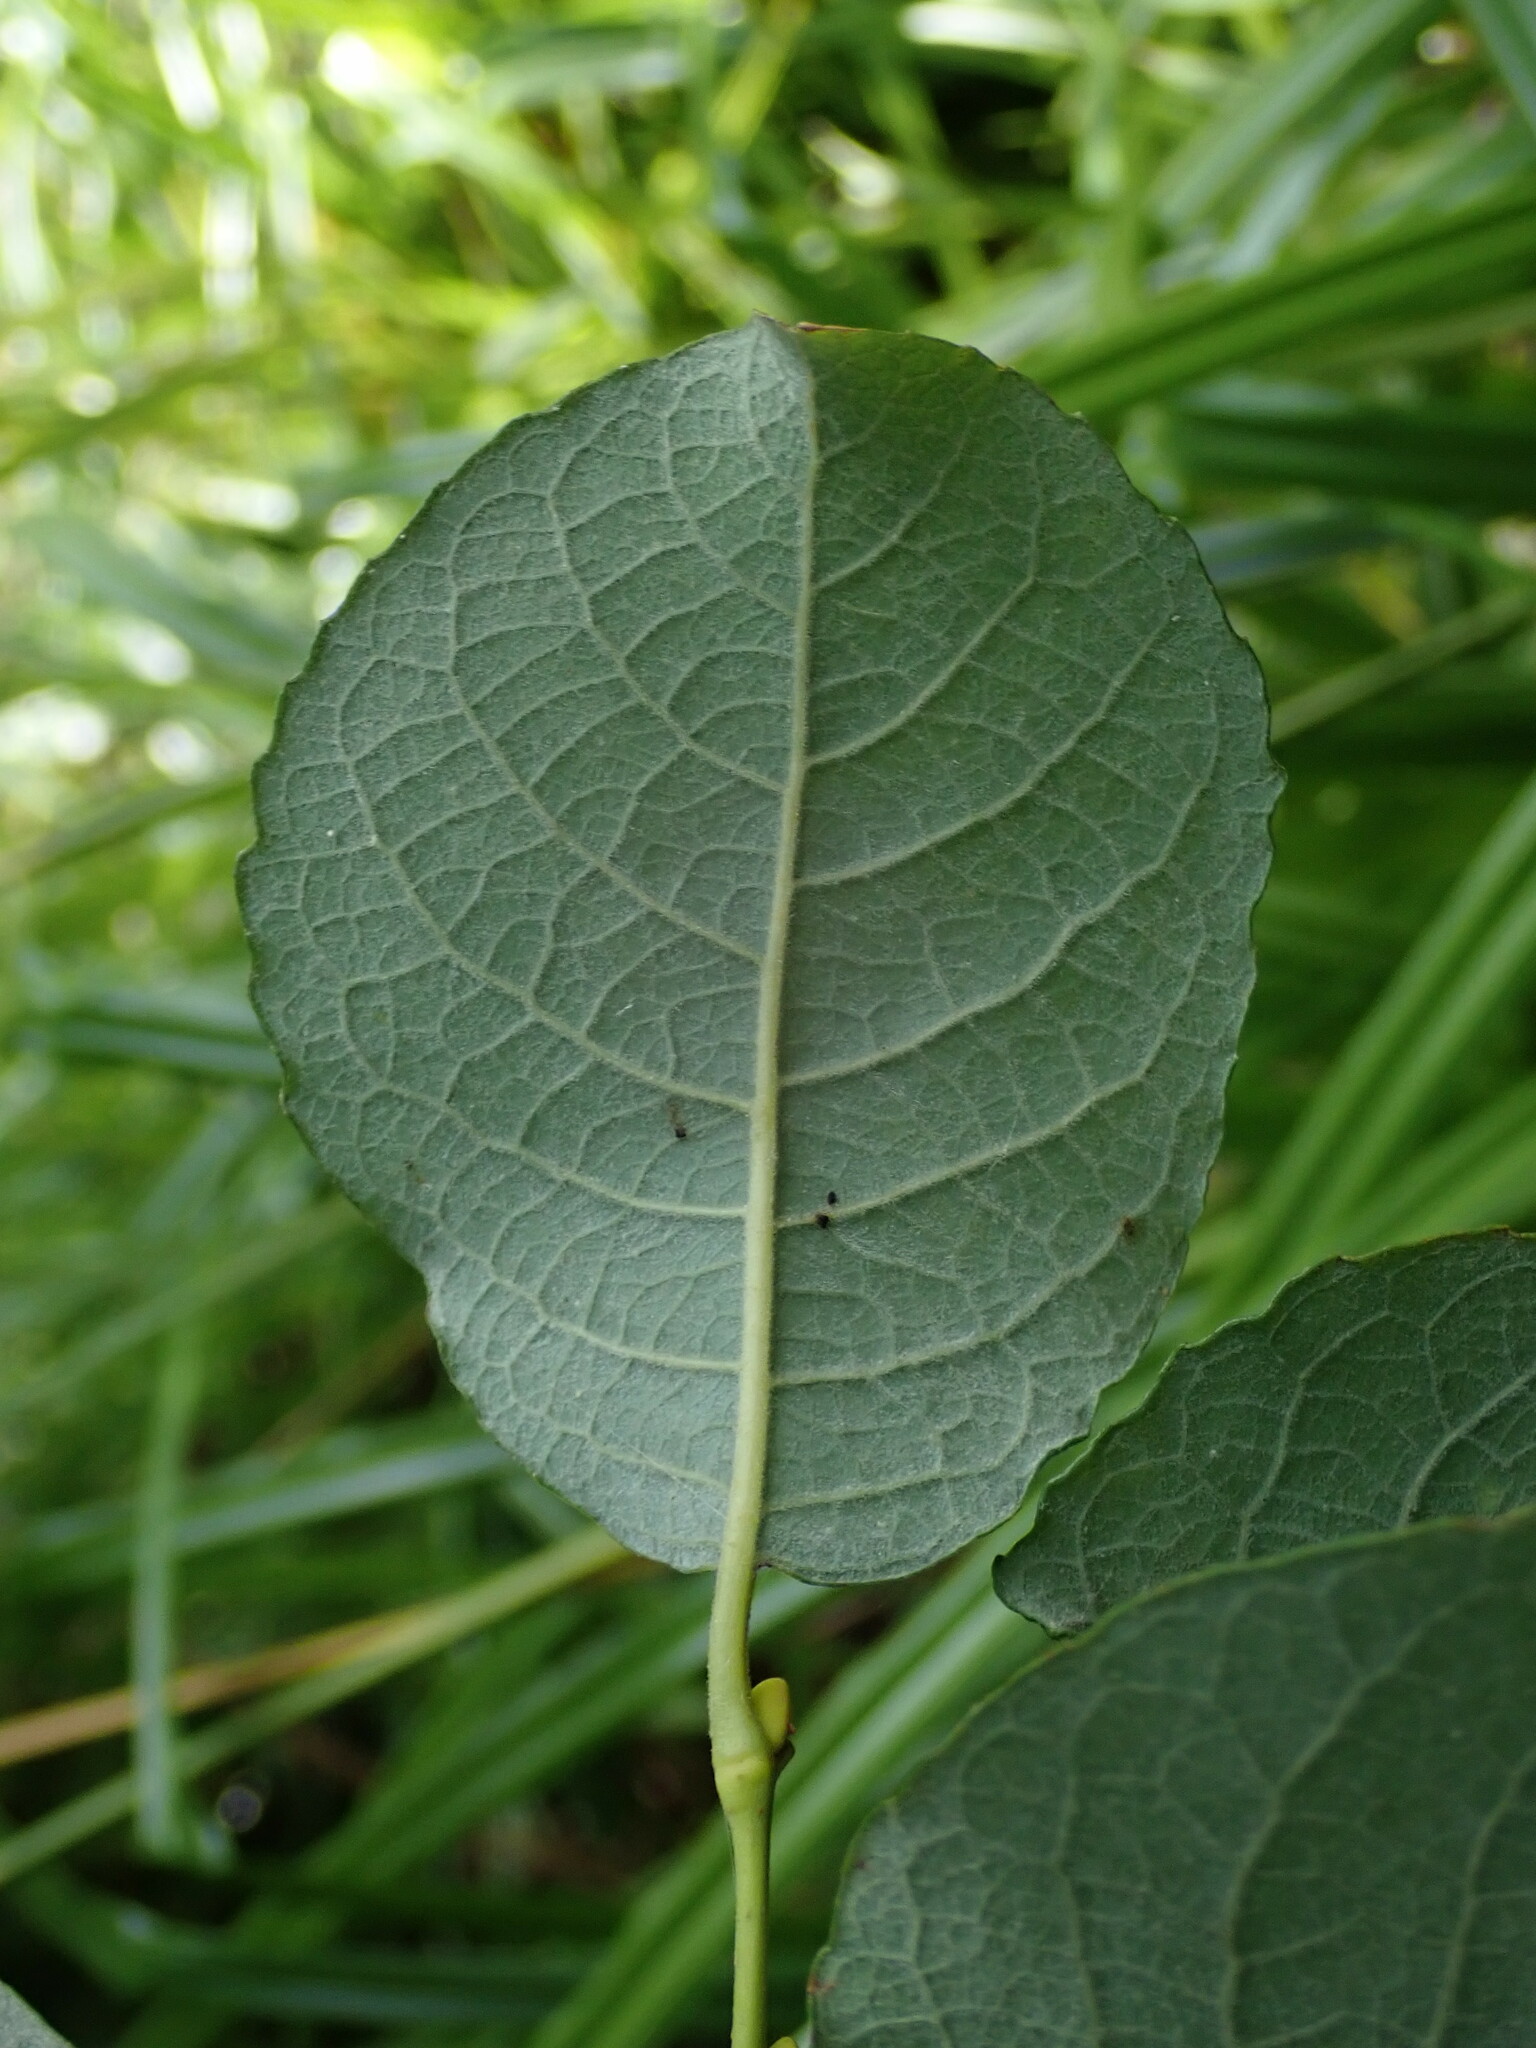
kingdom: Plantae
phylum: Tracheophyta
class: Magnoliopsida
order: Malpighiales
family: Salicaceae
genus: Salix
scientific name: Salix caprea
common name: Goat willow
